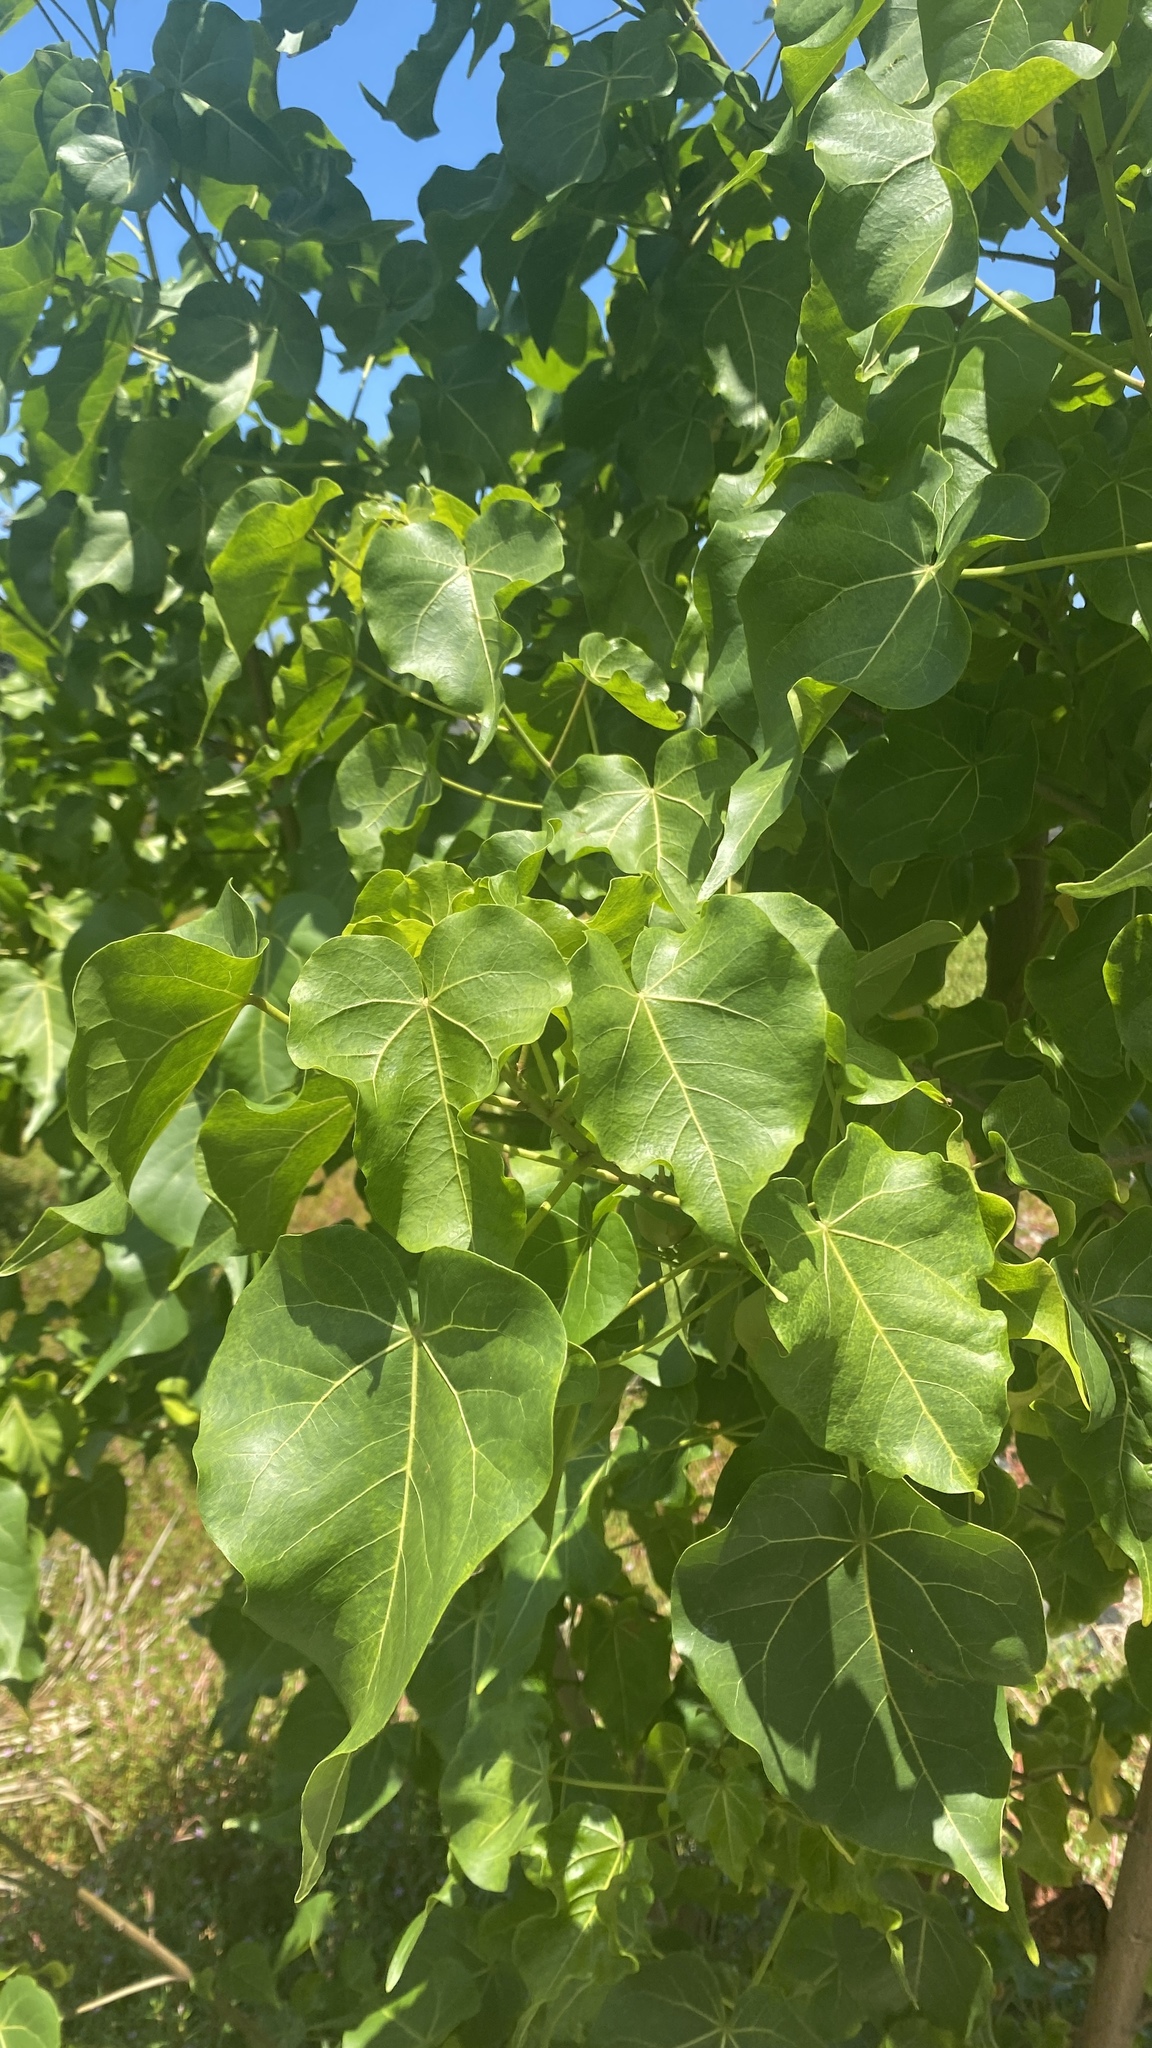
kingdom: Plantae
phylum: Tracheophyta
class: Magnoliopsida
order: Malvales
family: Malvaceae
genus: Thespesia
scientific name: Thespesia populnea
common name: Seaside mahoe
